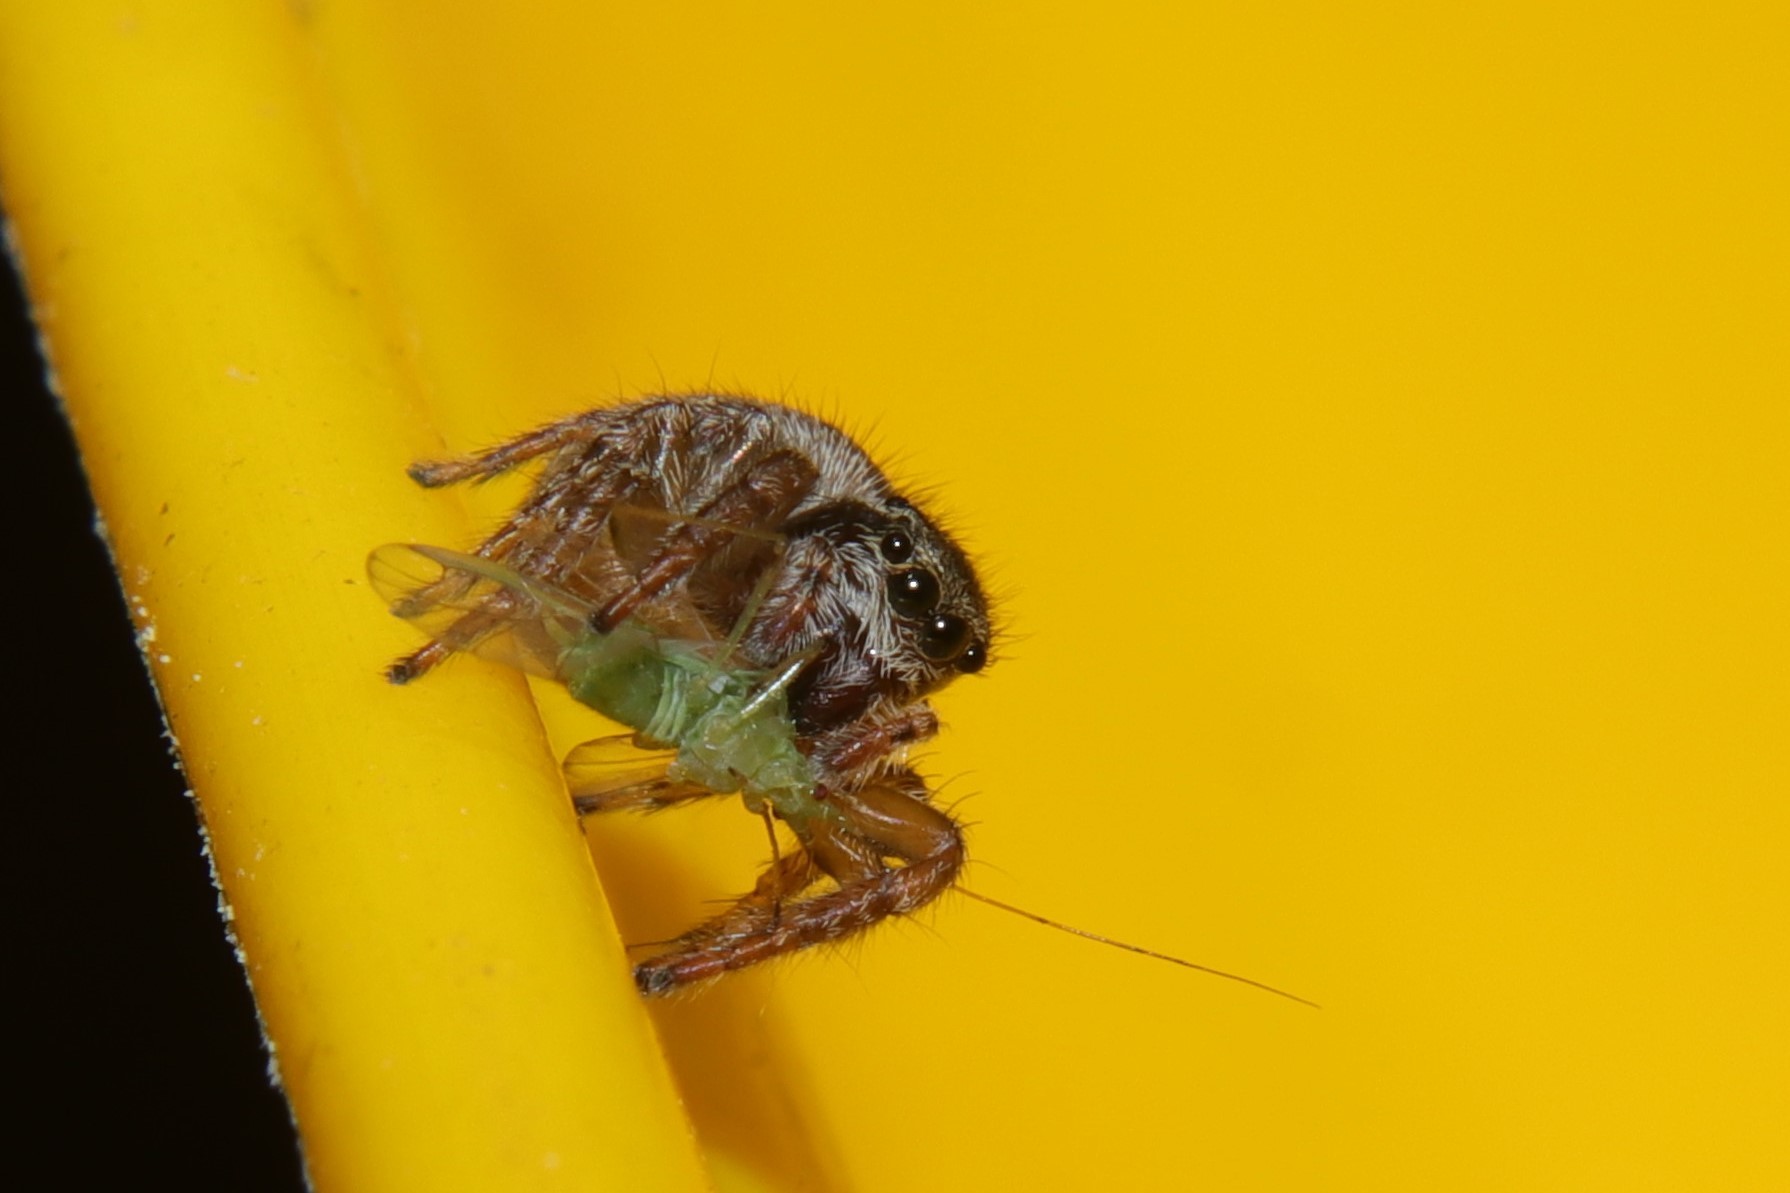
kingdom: Animalia
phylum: Arthropoda
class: Arachnida
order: Araneae
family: Salticidae
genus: Maratus
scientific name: Maratus griseus
